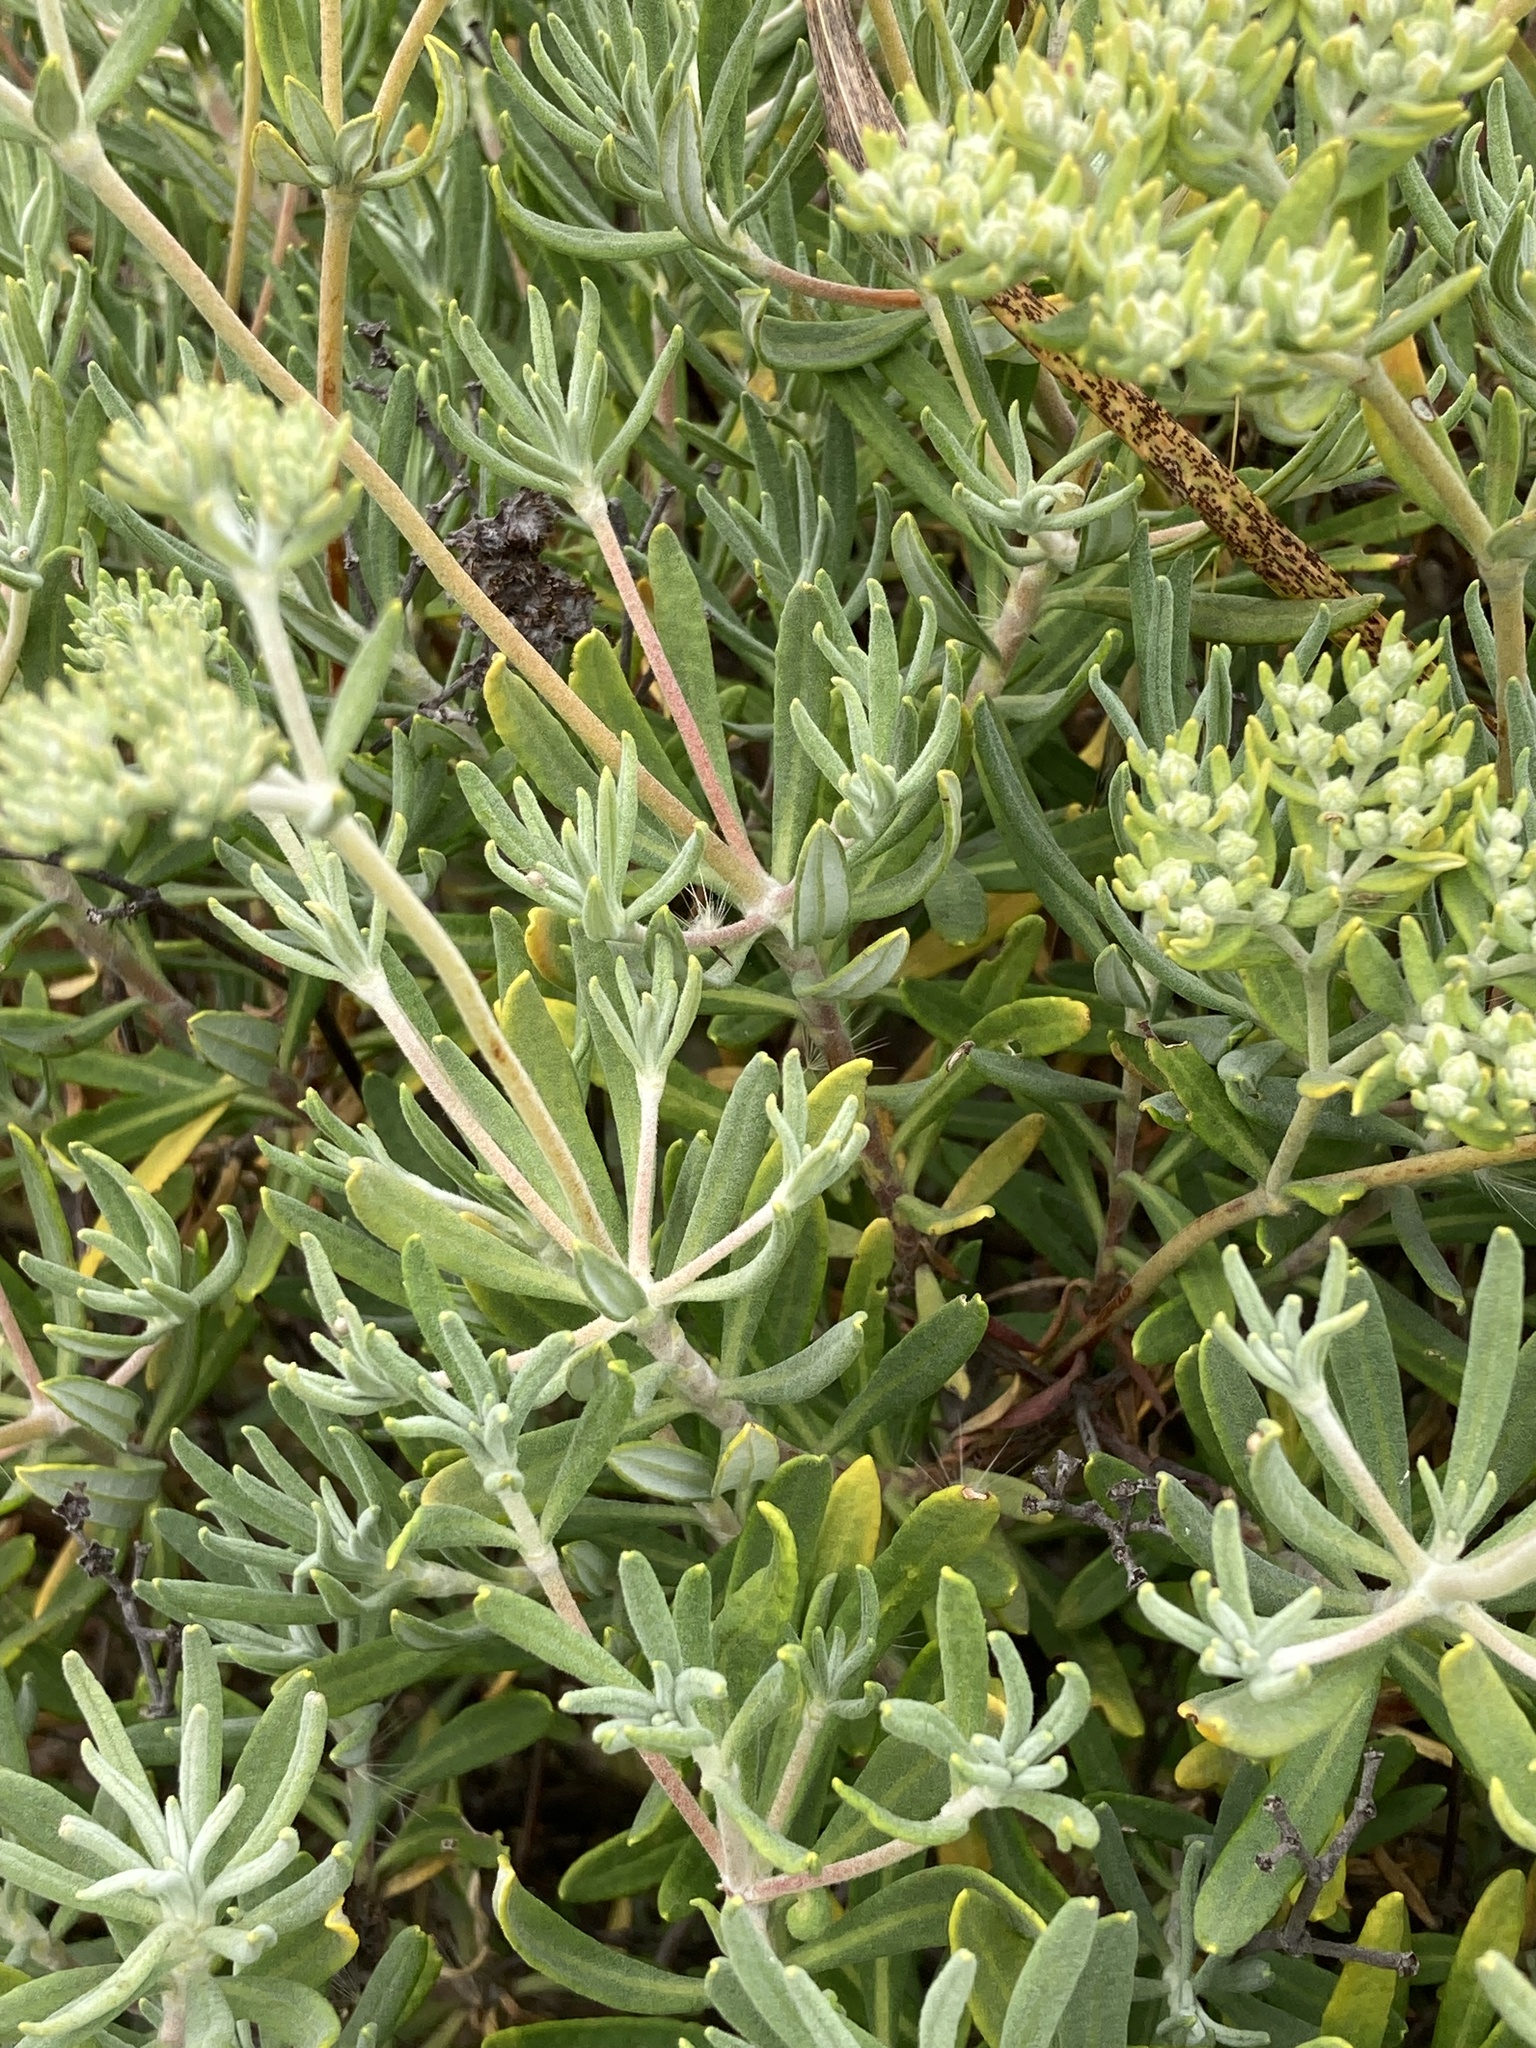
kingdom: Plantae
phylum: Tracheophyta
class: Magnoliopsida
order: Caryophyllales
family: Polygonaceae
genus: Eriogonum
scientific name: Eriogonum arborescens
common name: Island buckwheat
